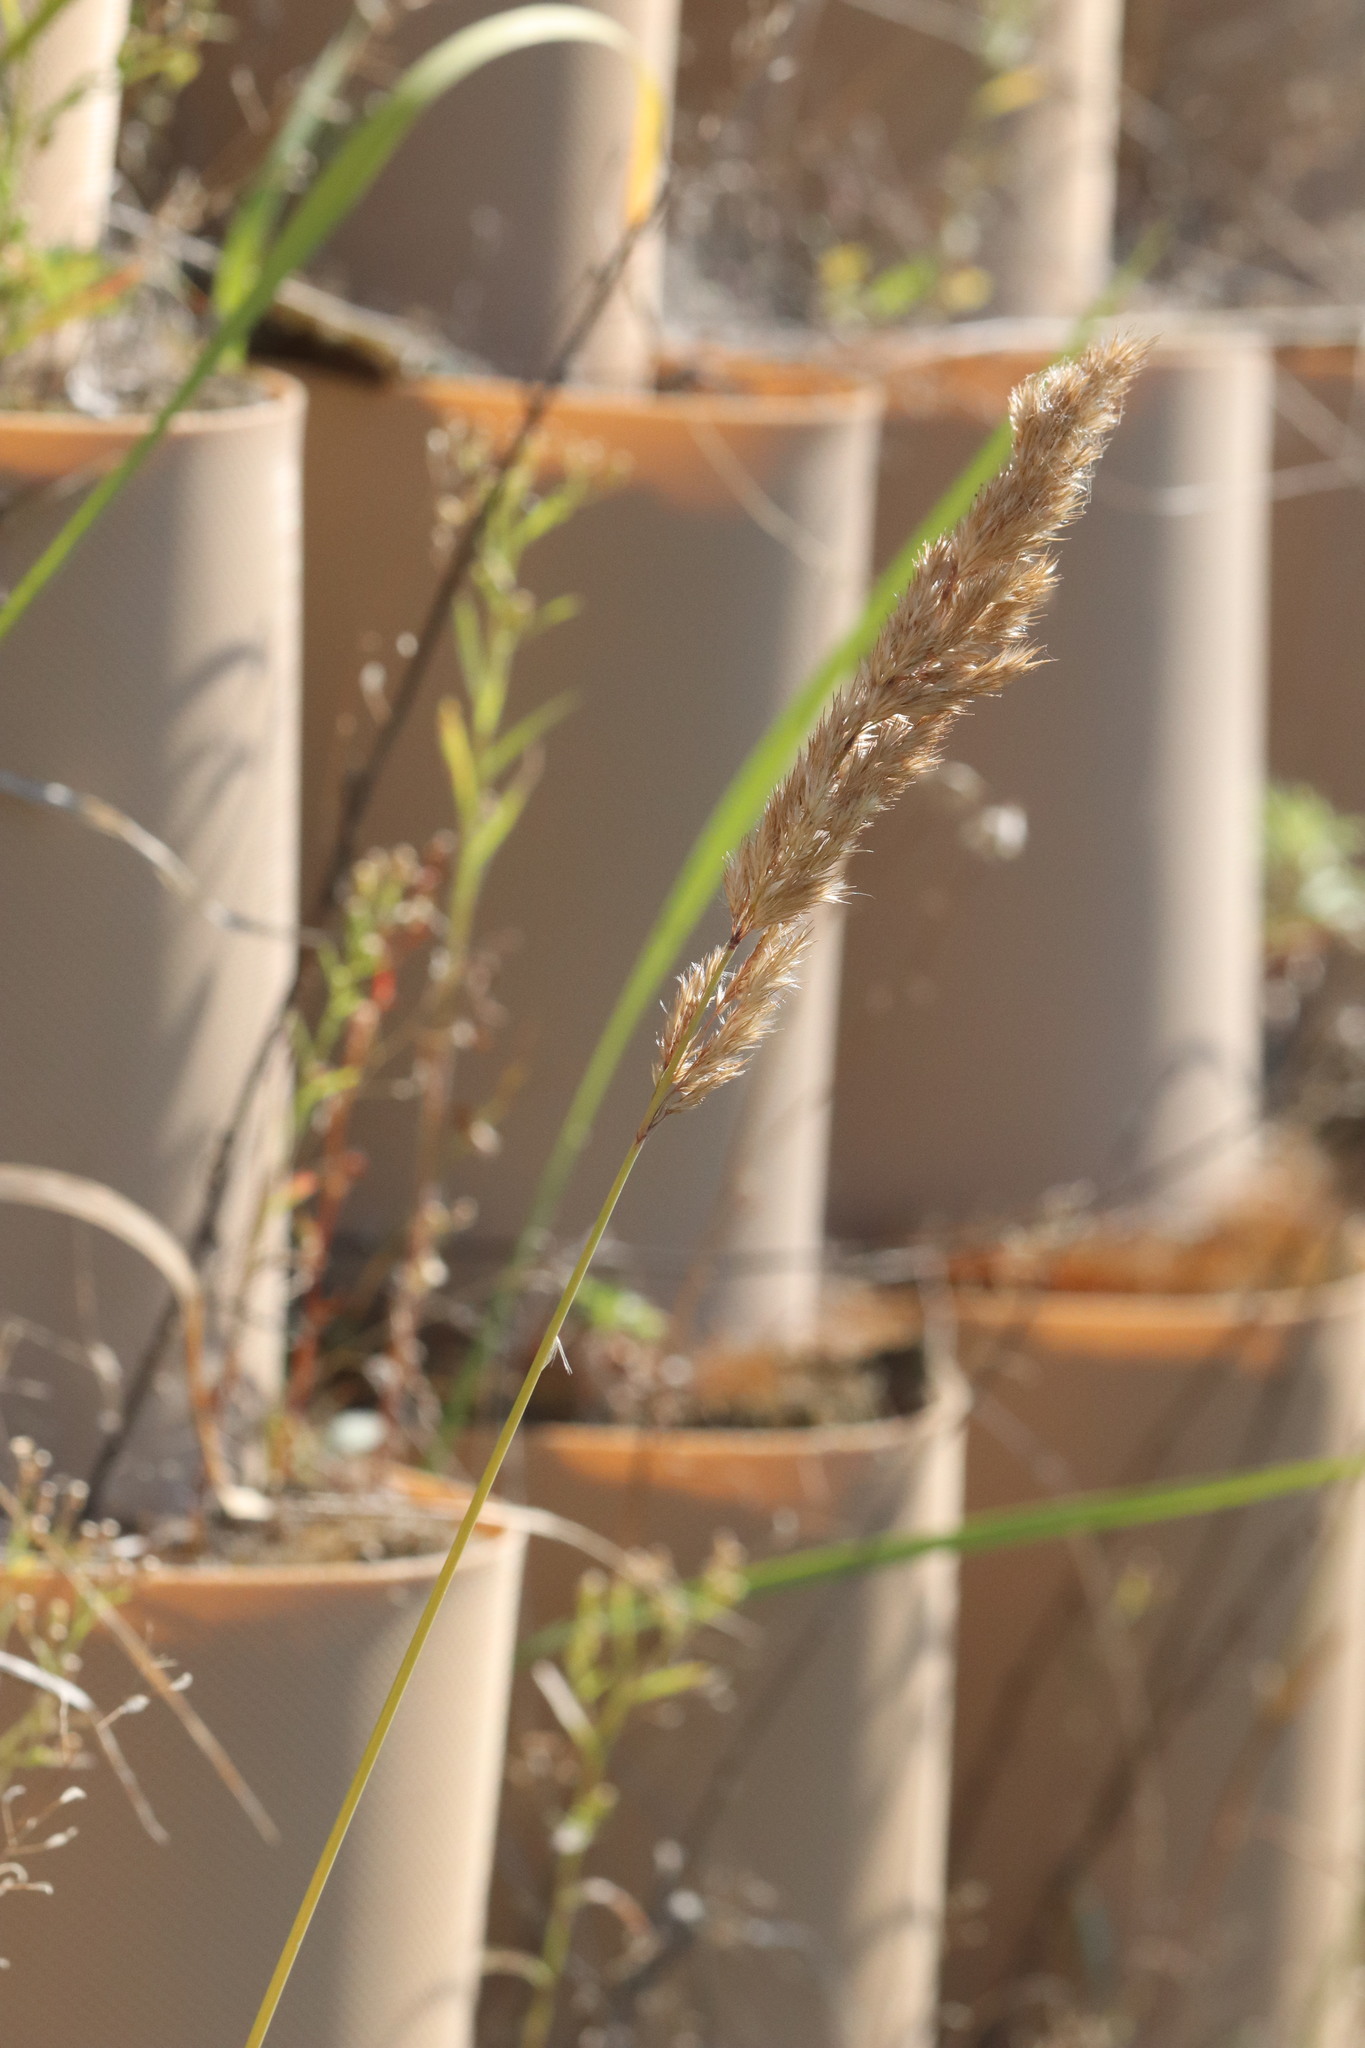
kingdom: Plantae
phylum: Tracheophyta
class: Liliopsida
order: Poales
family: Poaceae
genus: Calamagrostis
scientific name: Calamagrostis epigejos
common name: Wood small-reed
